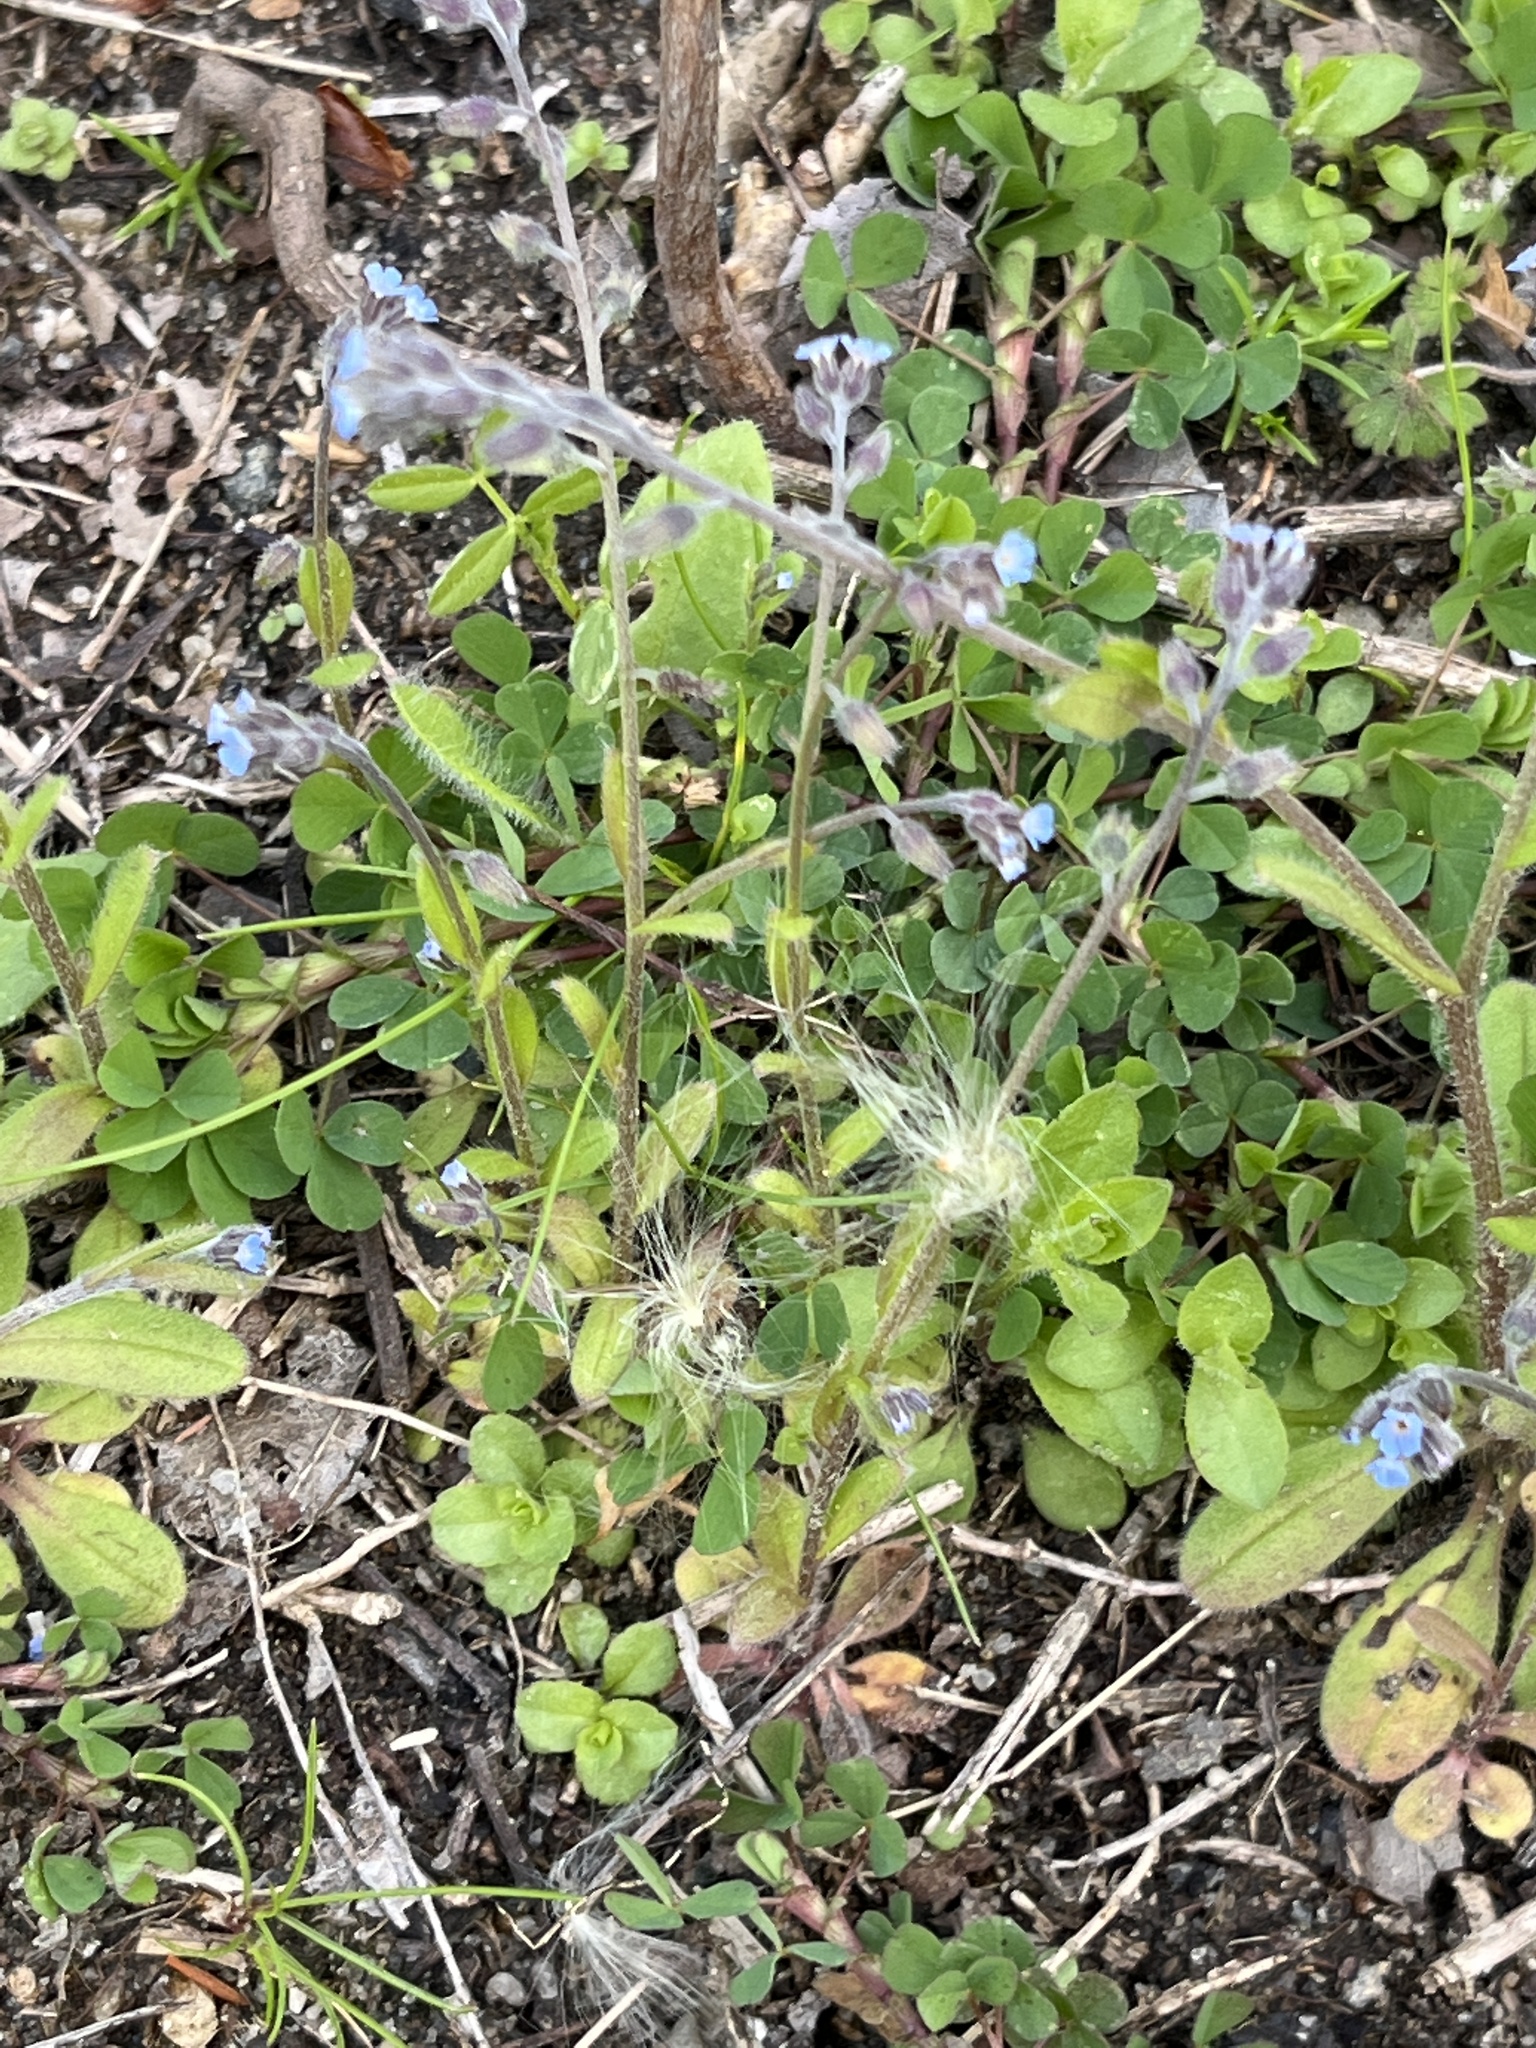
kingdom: Plantae
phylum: Tracheophyta
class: Magnoliopsida
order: Boraginales
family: Boraginaceae
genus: Myosotis
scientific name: Myosotis ramosissima
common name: Early forget-me-not
